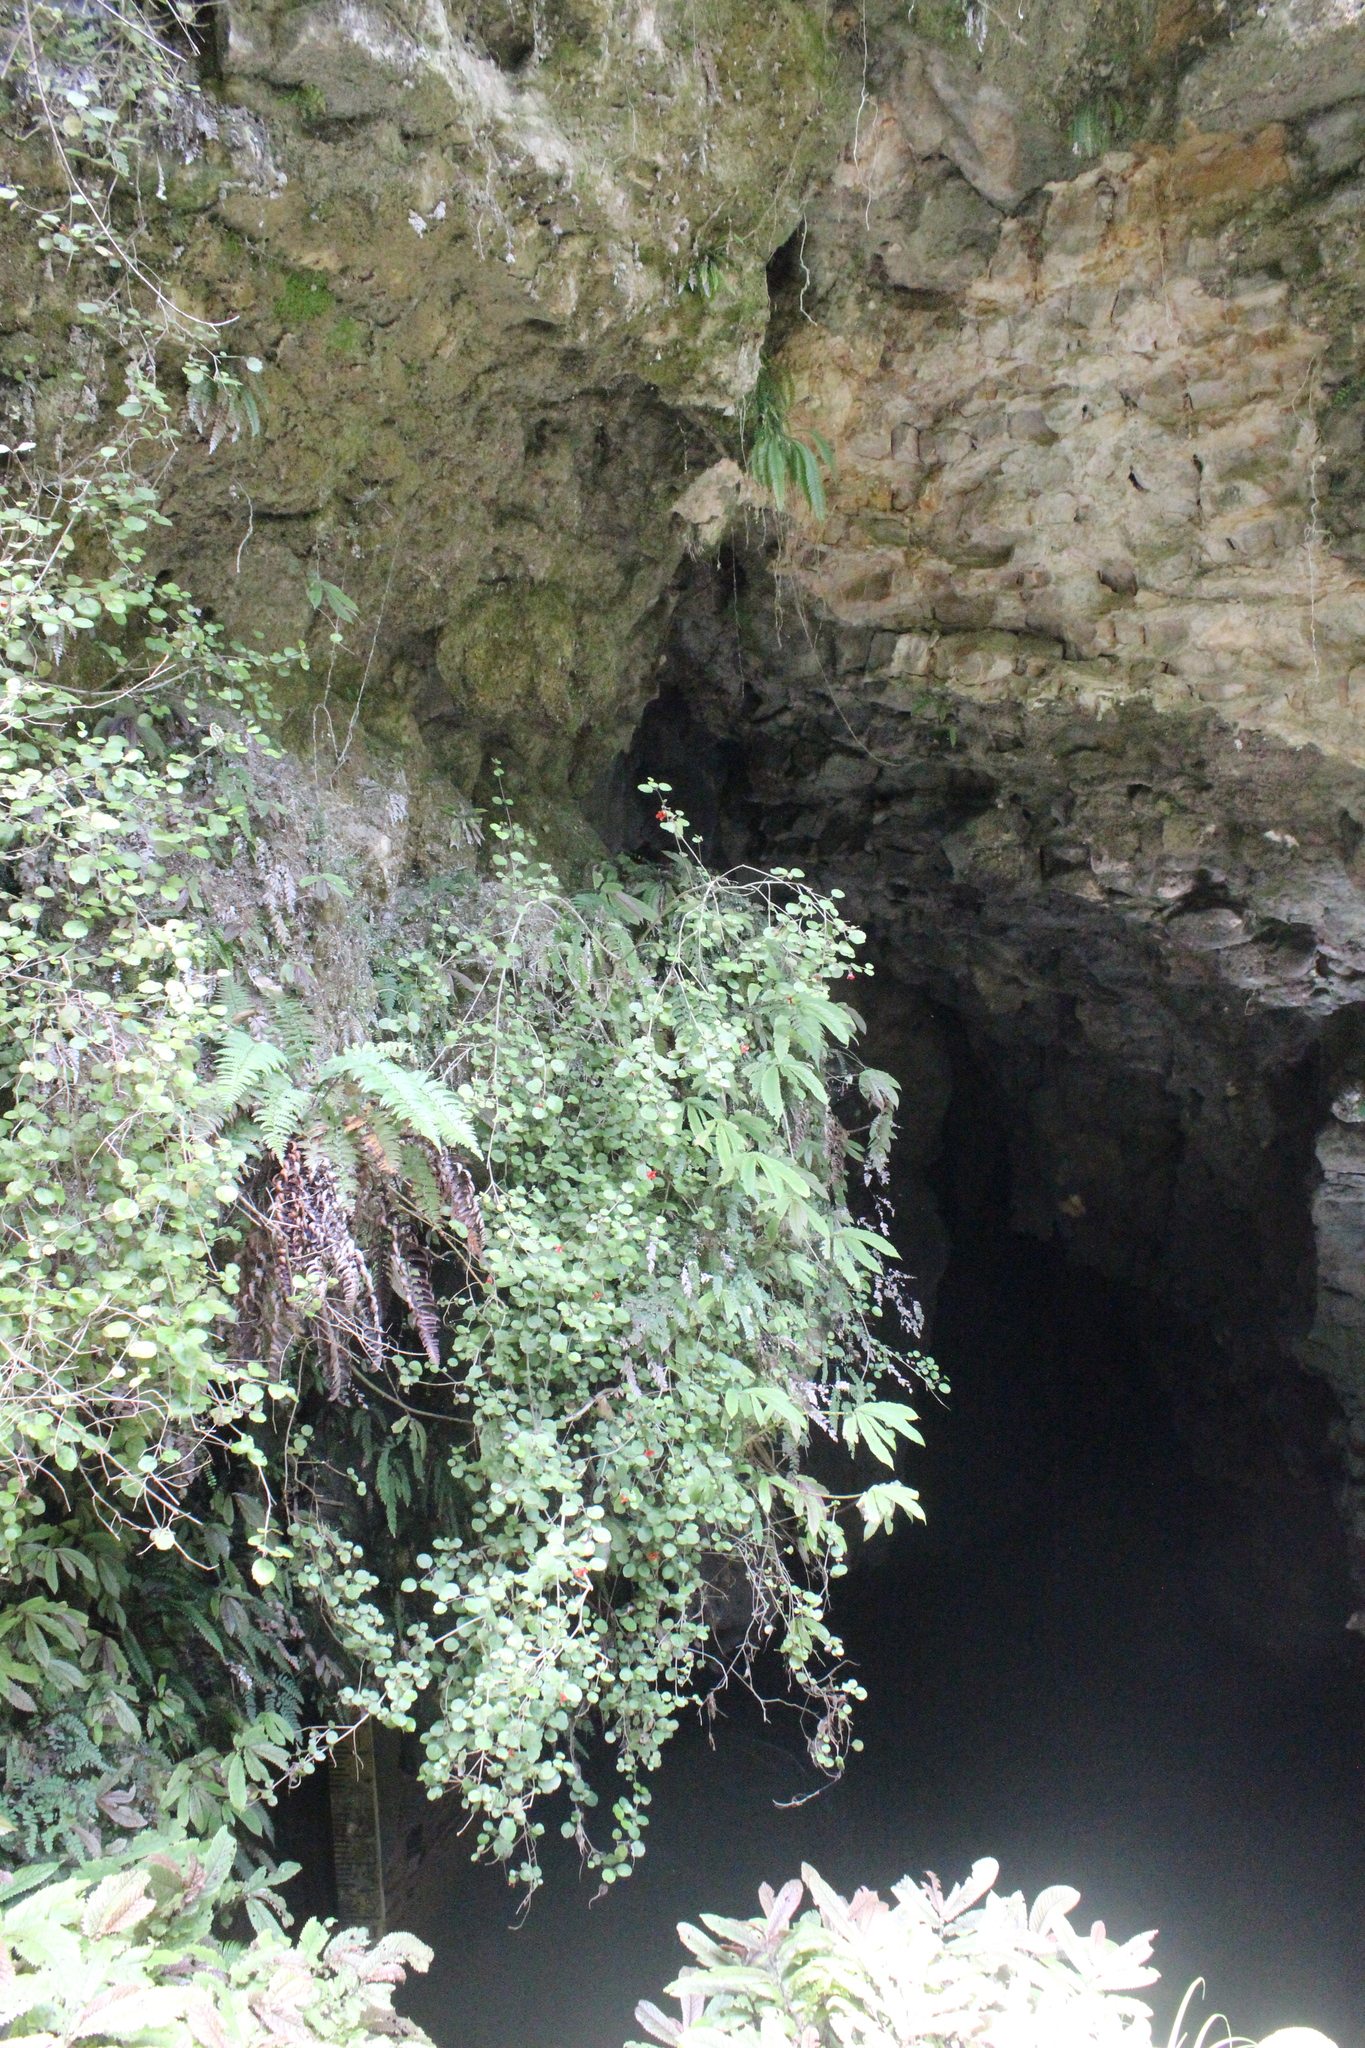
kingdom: Plantae
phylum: Tracheophyta
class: Magnoliopsida
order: Lamiales
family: Gesneriaceae
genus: Rhabdothamnus
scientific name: Rhabdothamnus solandri
